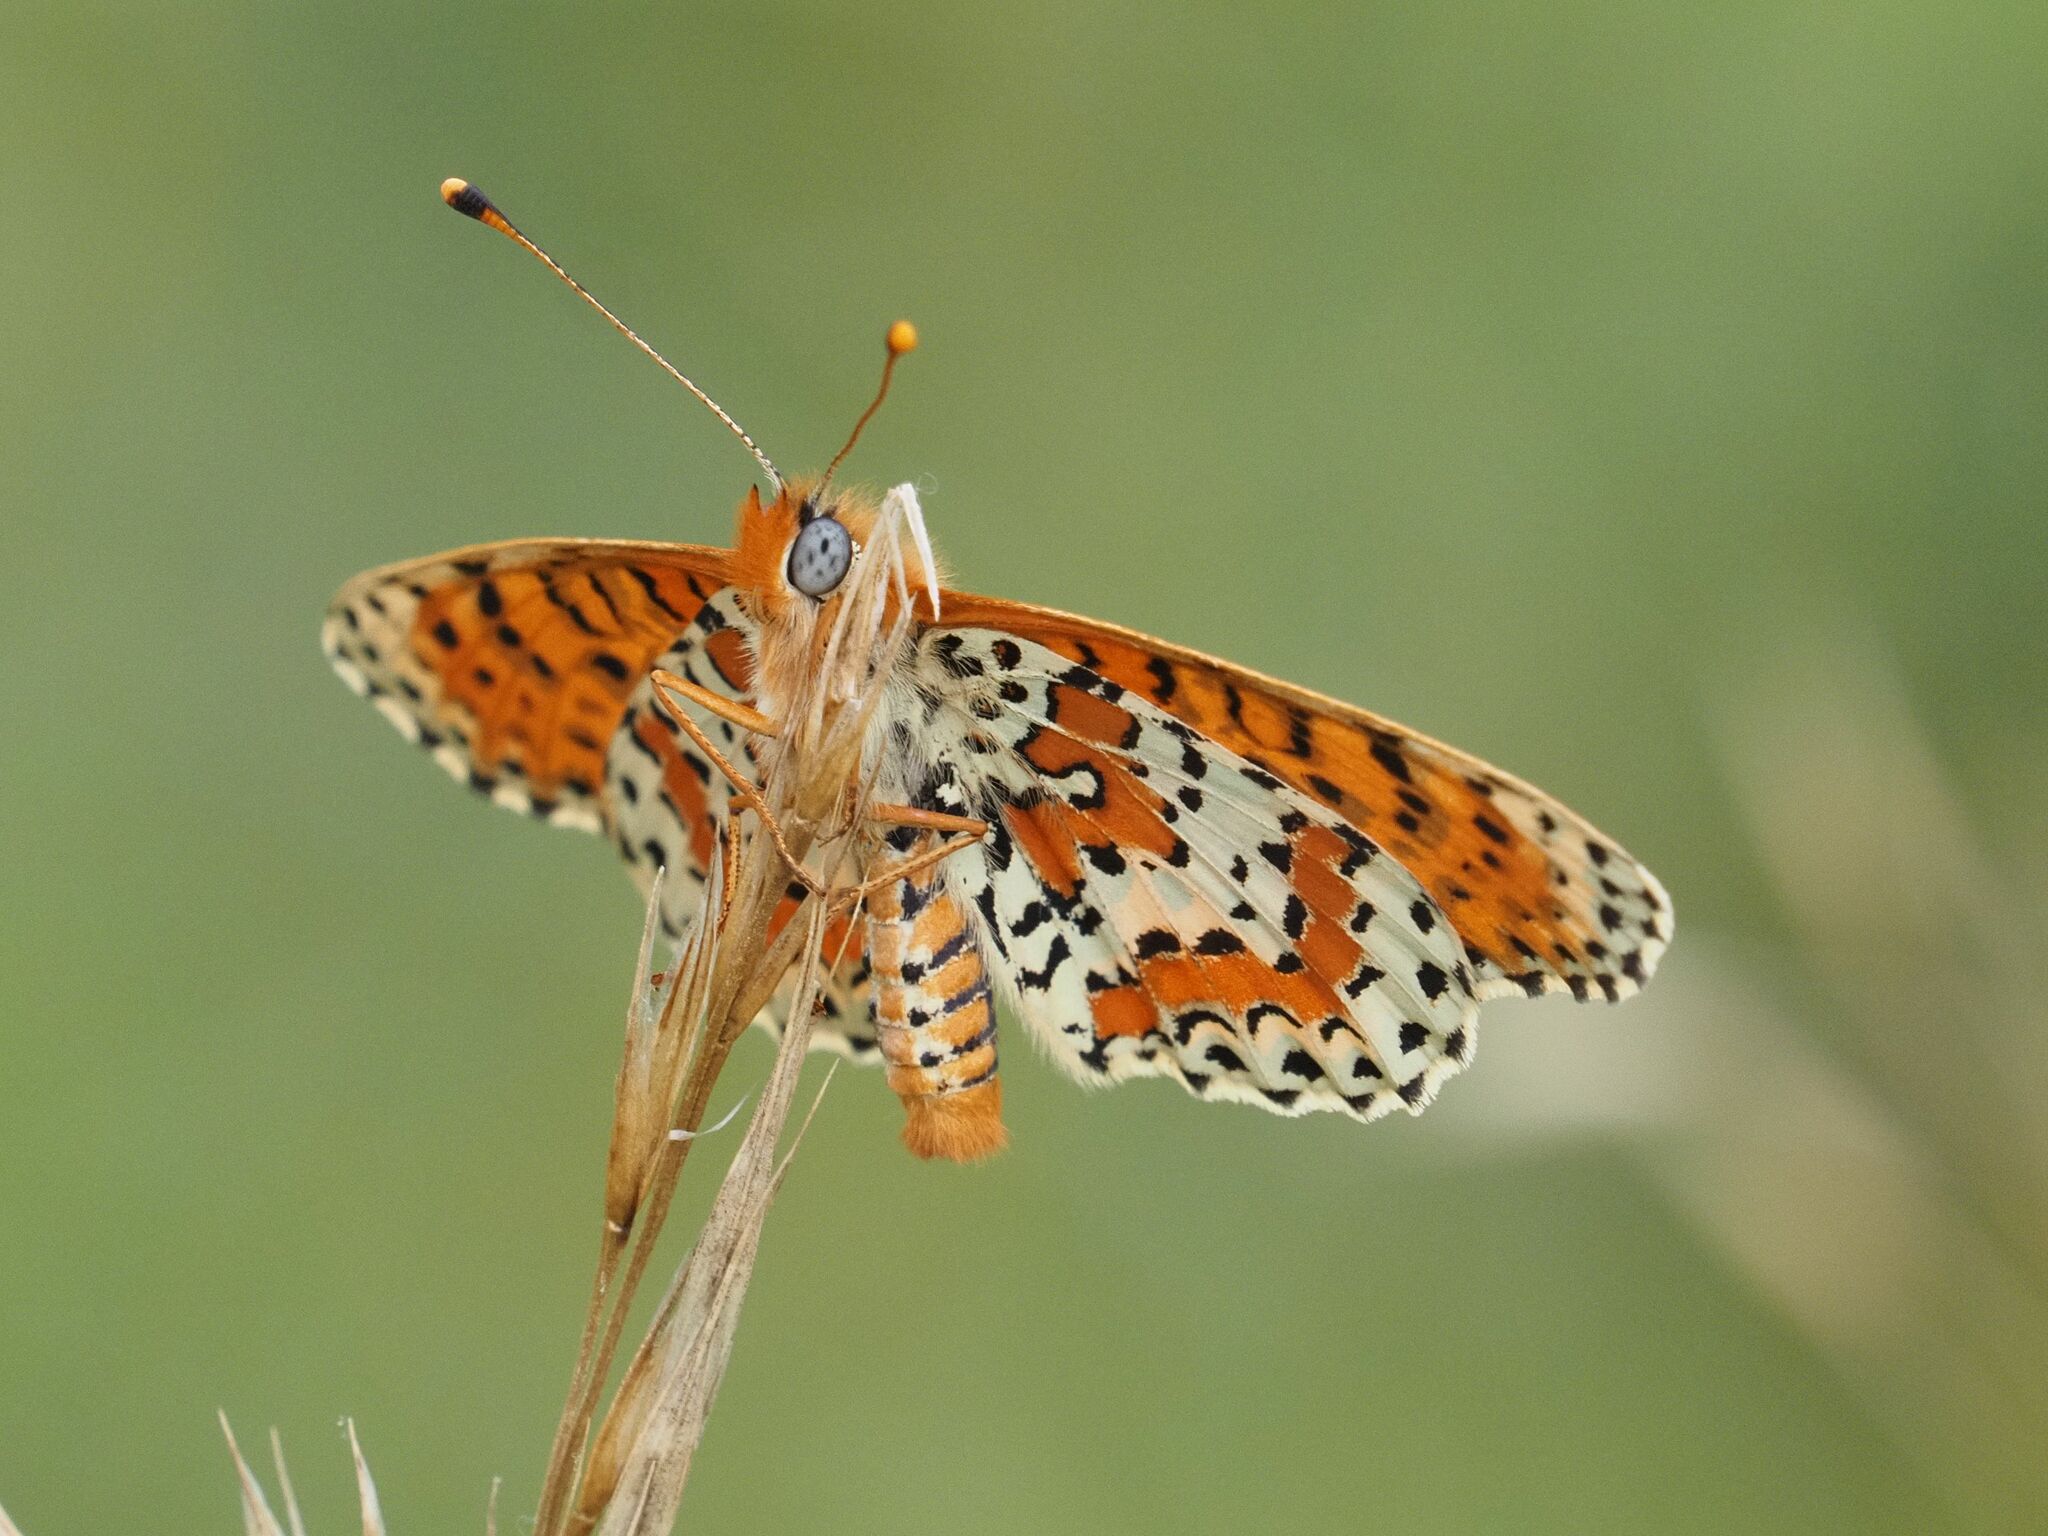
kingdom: Animalia
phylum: Arthropoda
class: Insecta
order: Lepidoptera
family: Nymphalidae
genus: Melitaea
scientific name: Melitaea didyma
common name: Spotted fritillary
